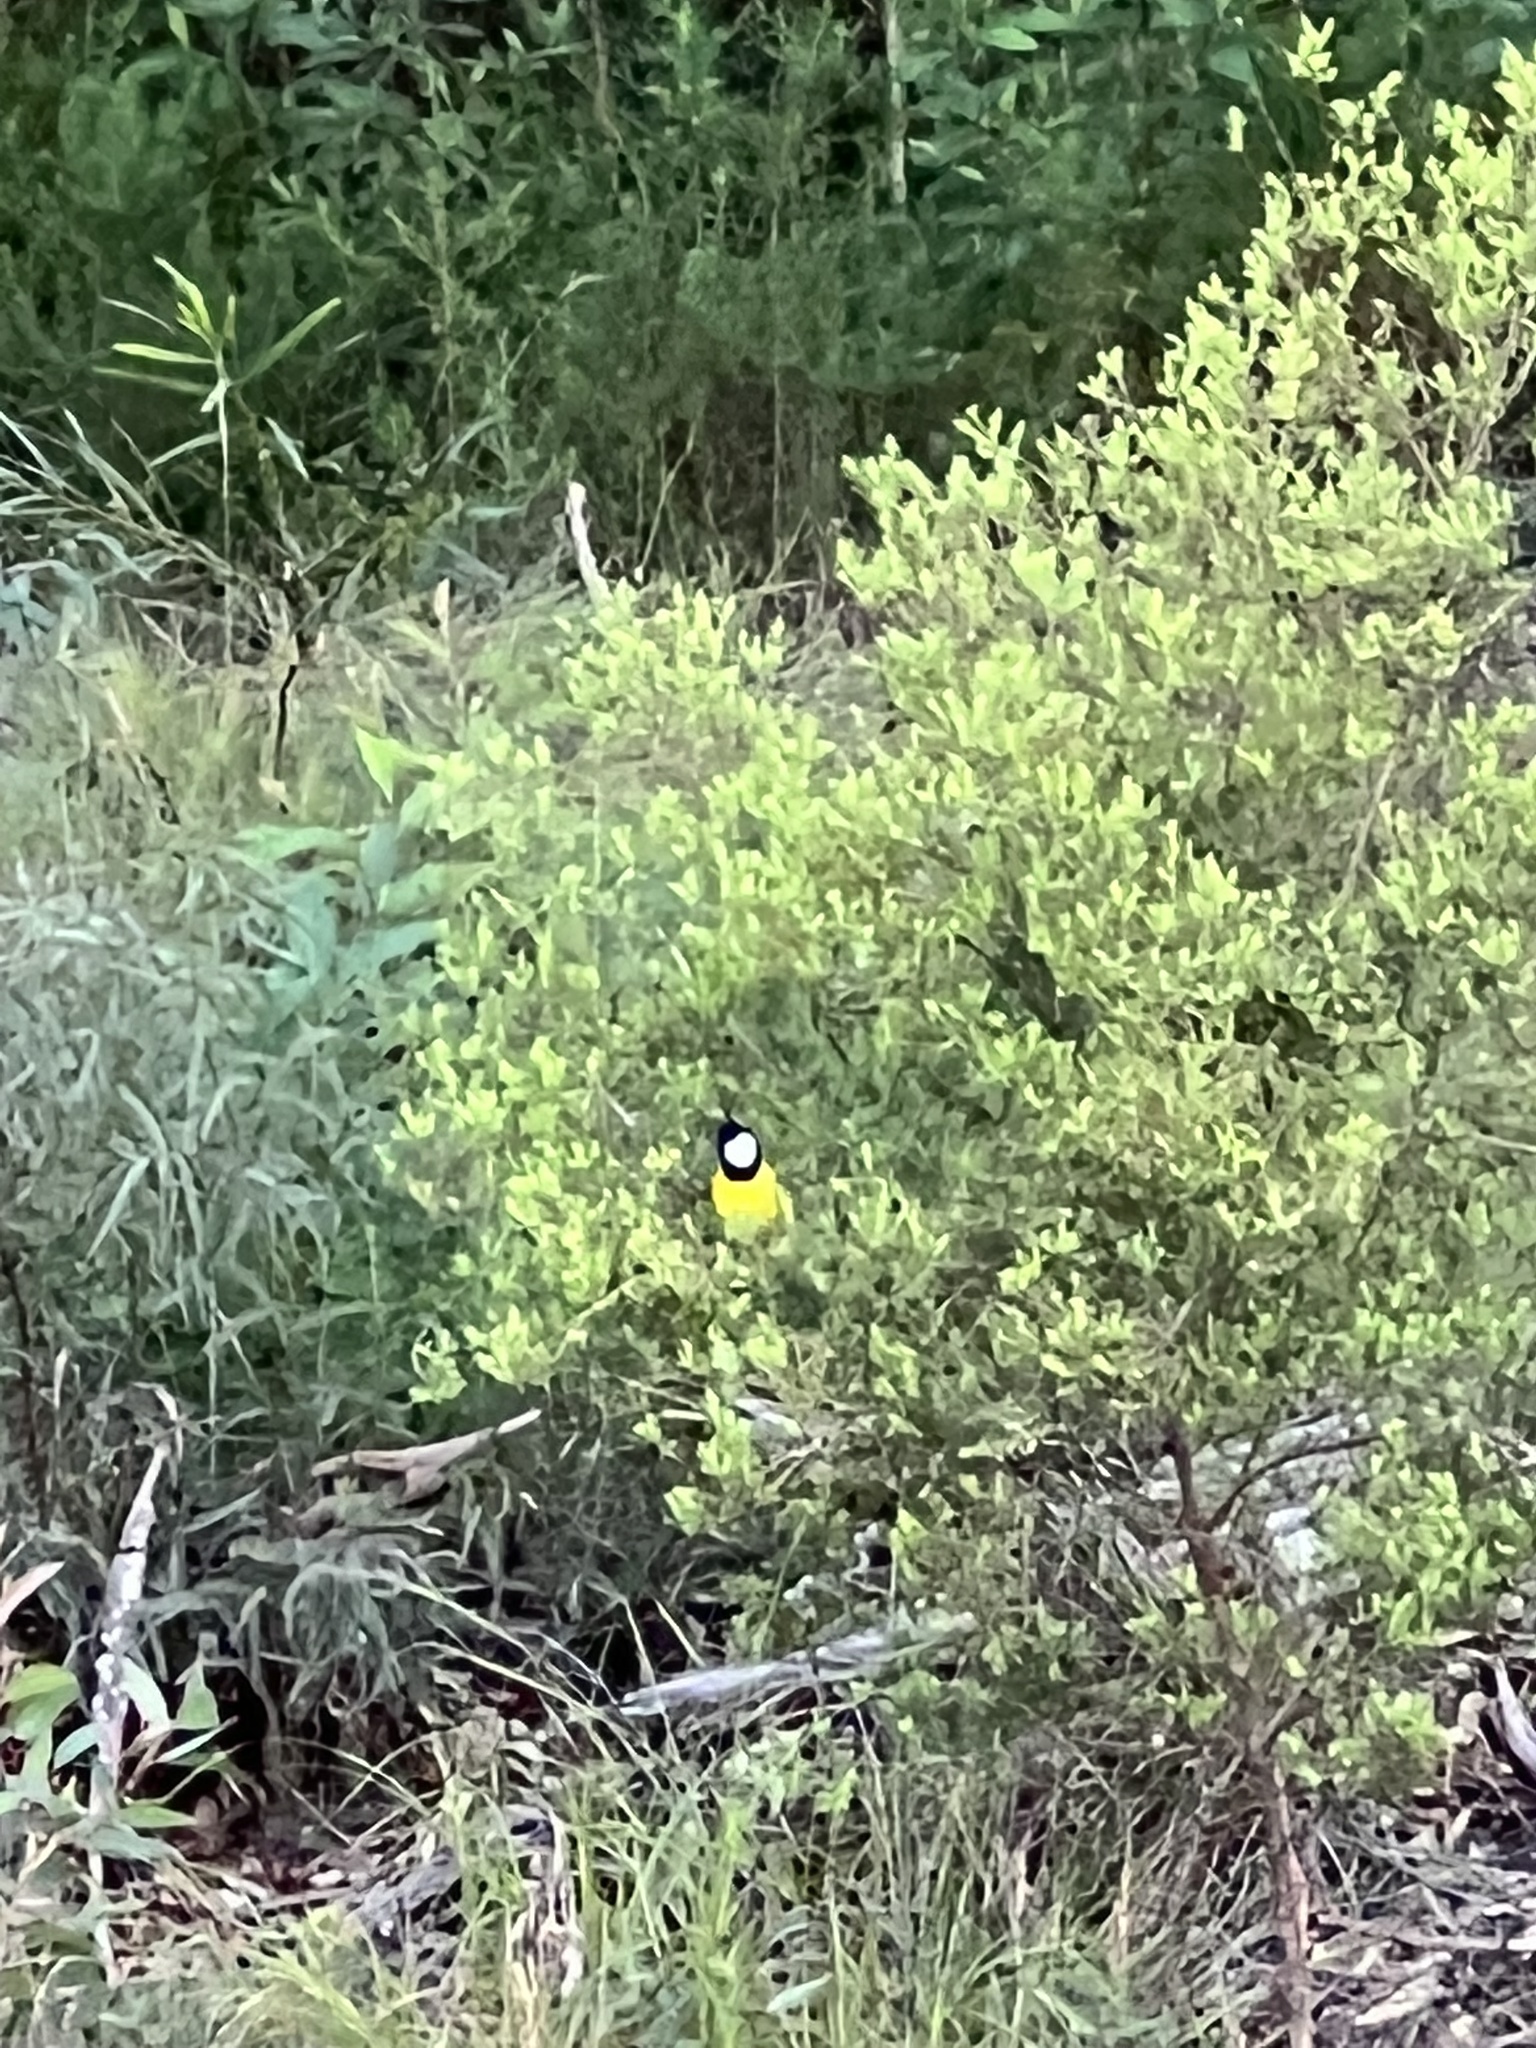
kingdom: Animalia
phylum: Chordata
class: Aves
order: Passeriformes
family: Pachycephalidae
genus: Pachycephala
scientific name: Pachycephala pectoralis
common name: Australian golden whistler
